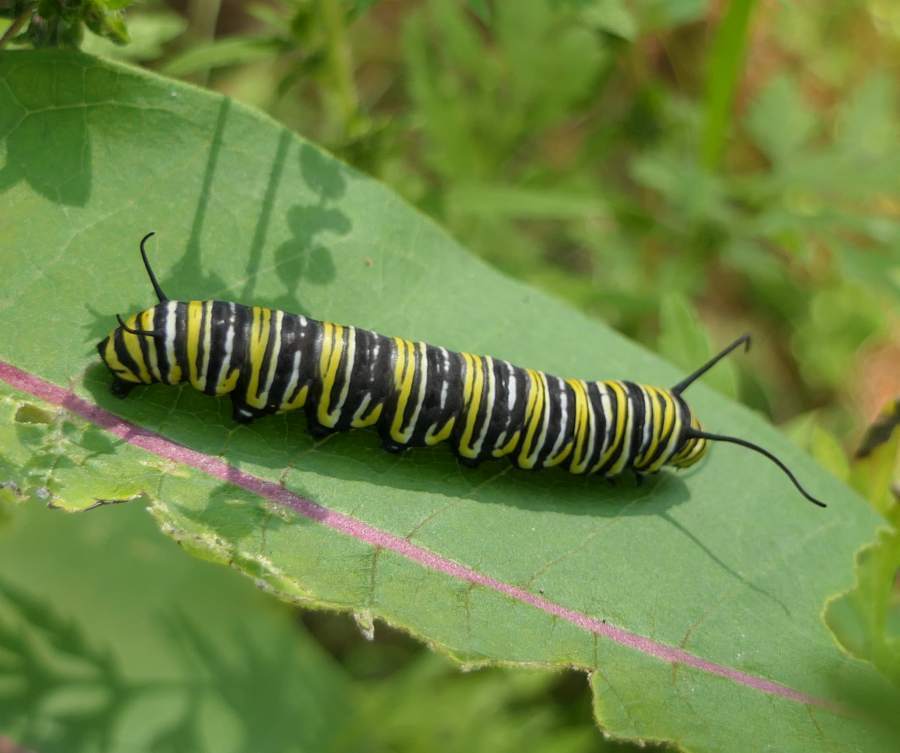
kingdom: Animalia
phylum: Arthropoda
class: Insecta
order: Lepidoptera
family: Nymphalidae
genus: Danaus
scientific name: Danaus plexippus
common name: Monarch
